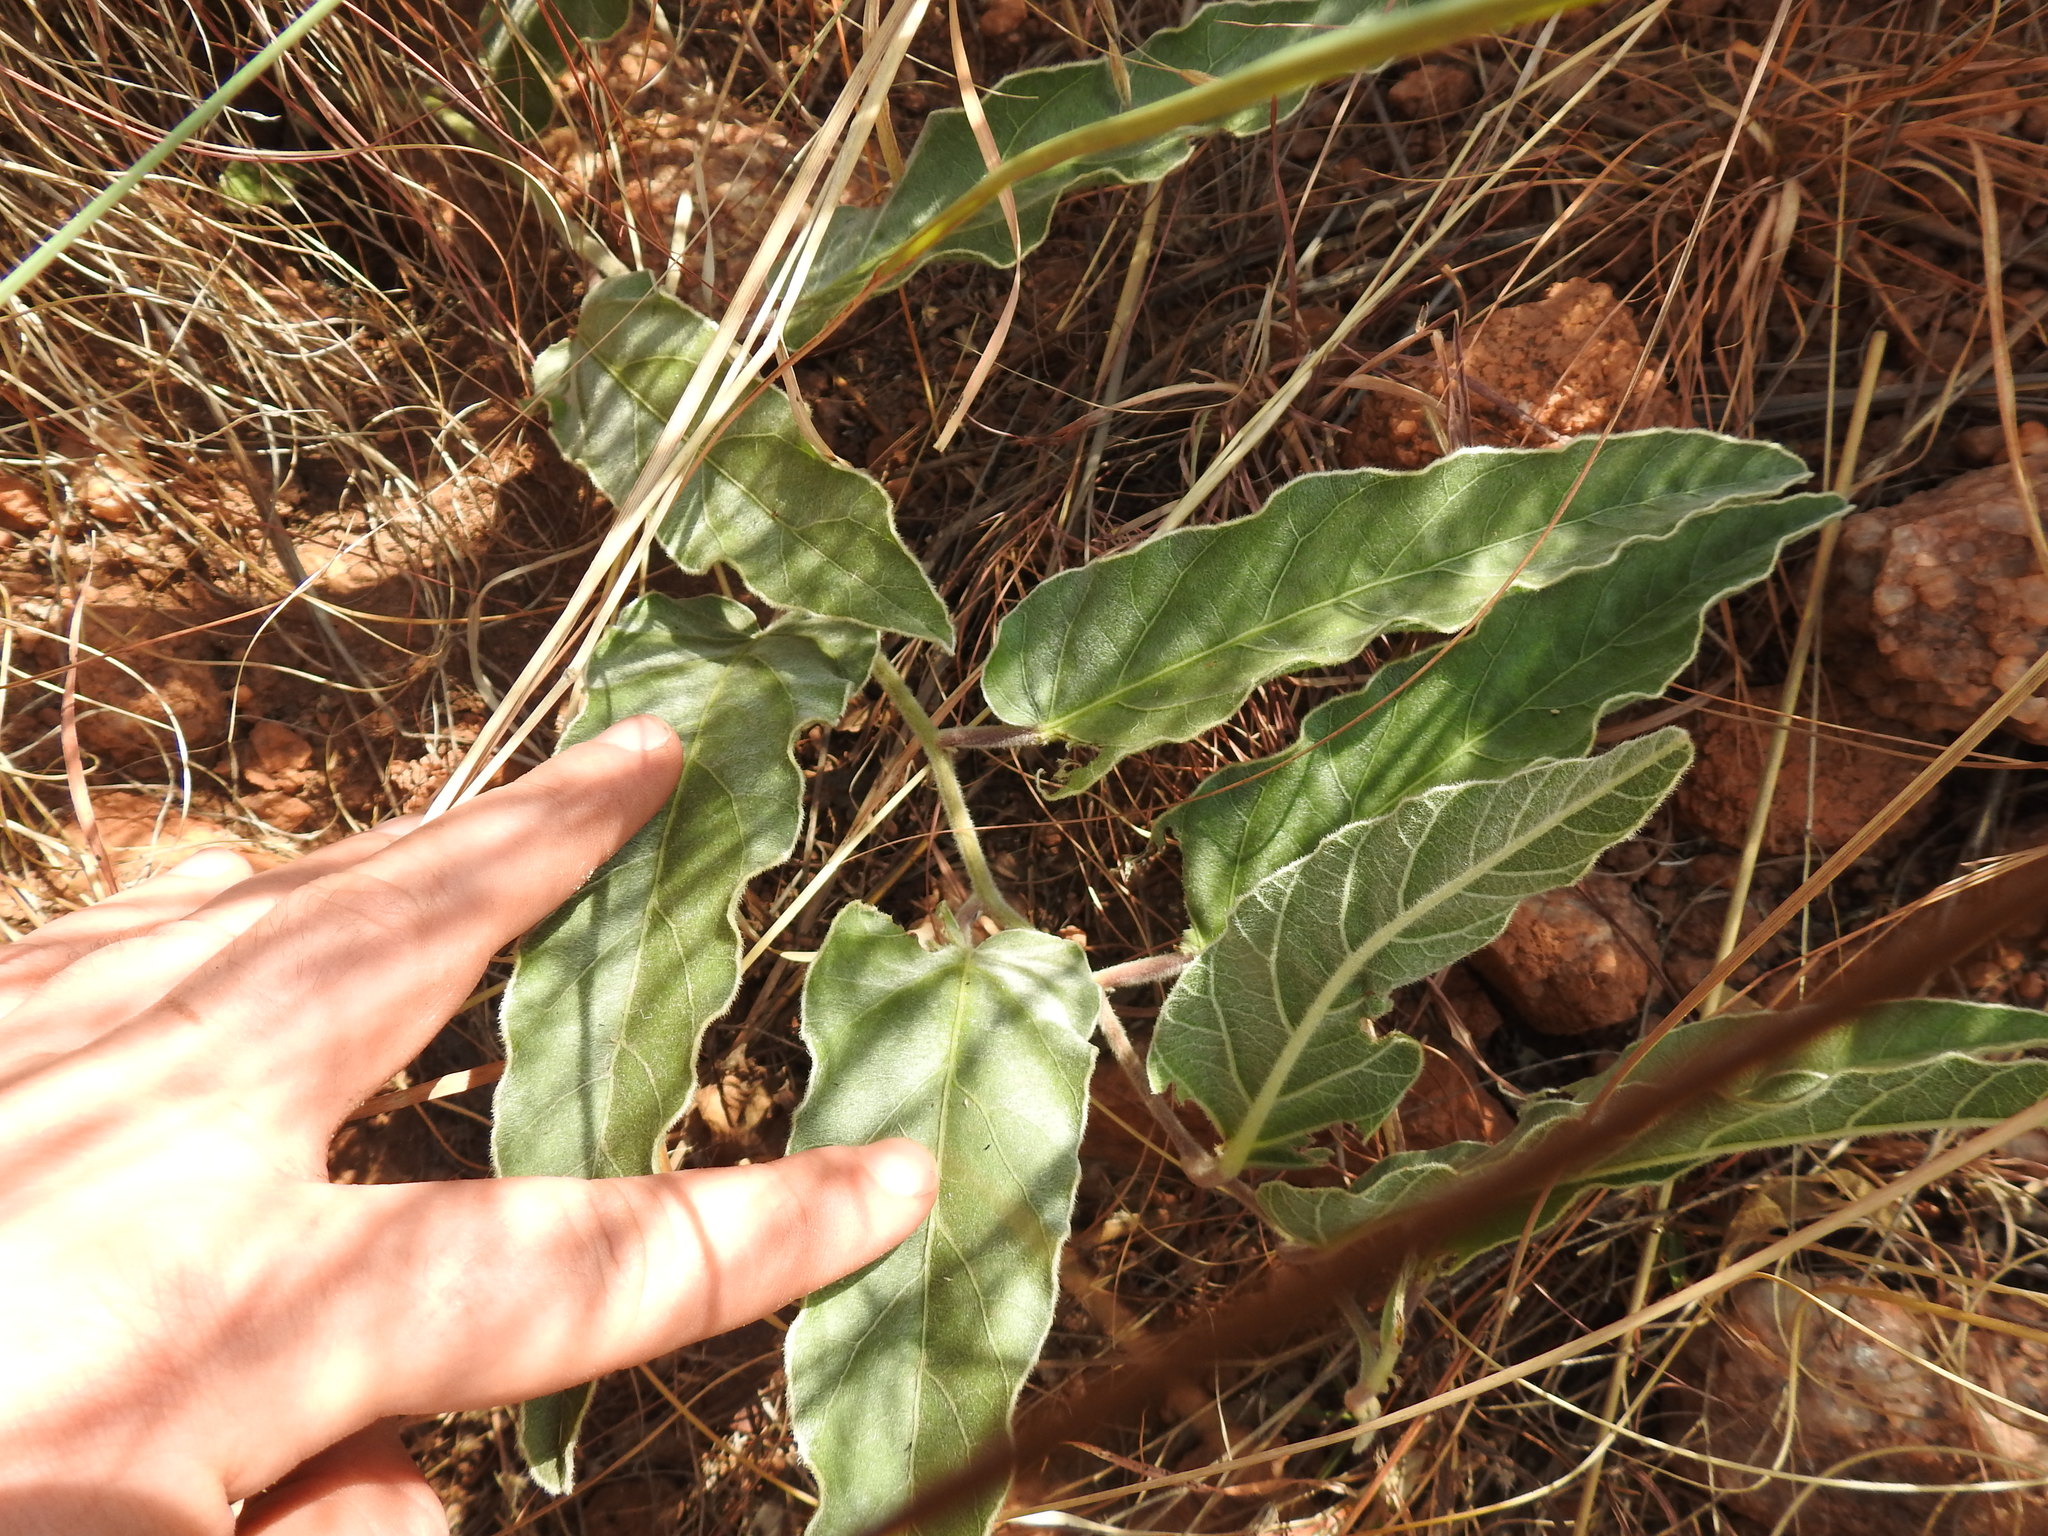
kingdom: Plantae
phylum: Tracheophyta
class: Magnoliopsida
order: Solanales
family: Convolvulaceae
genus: Ipomoea
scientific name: Ipomoea ommanneyi
